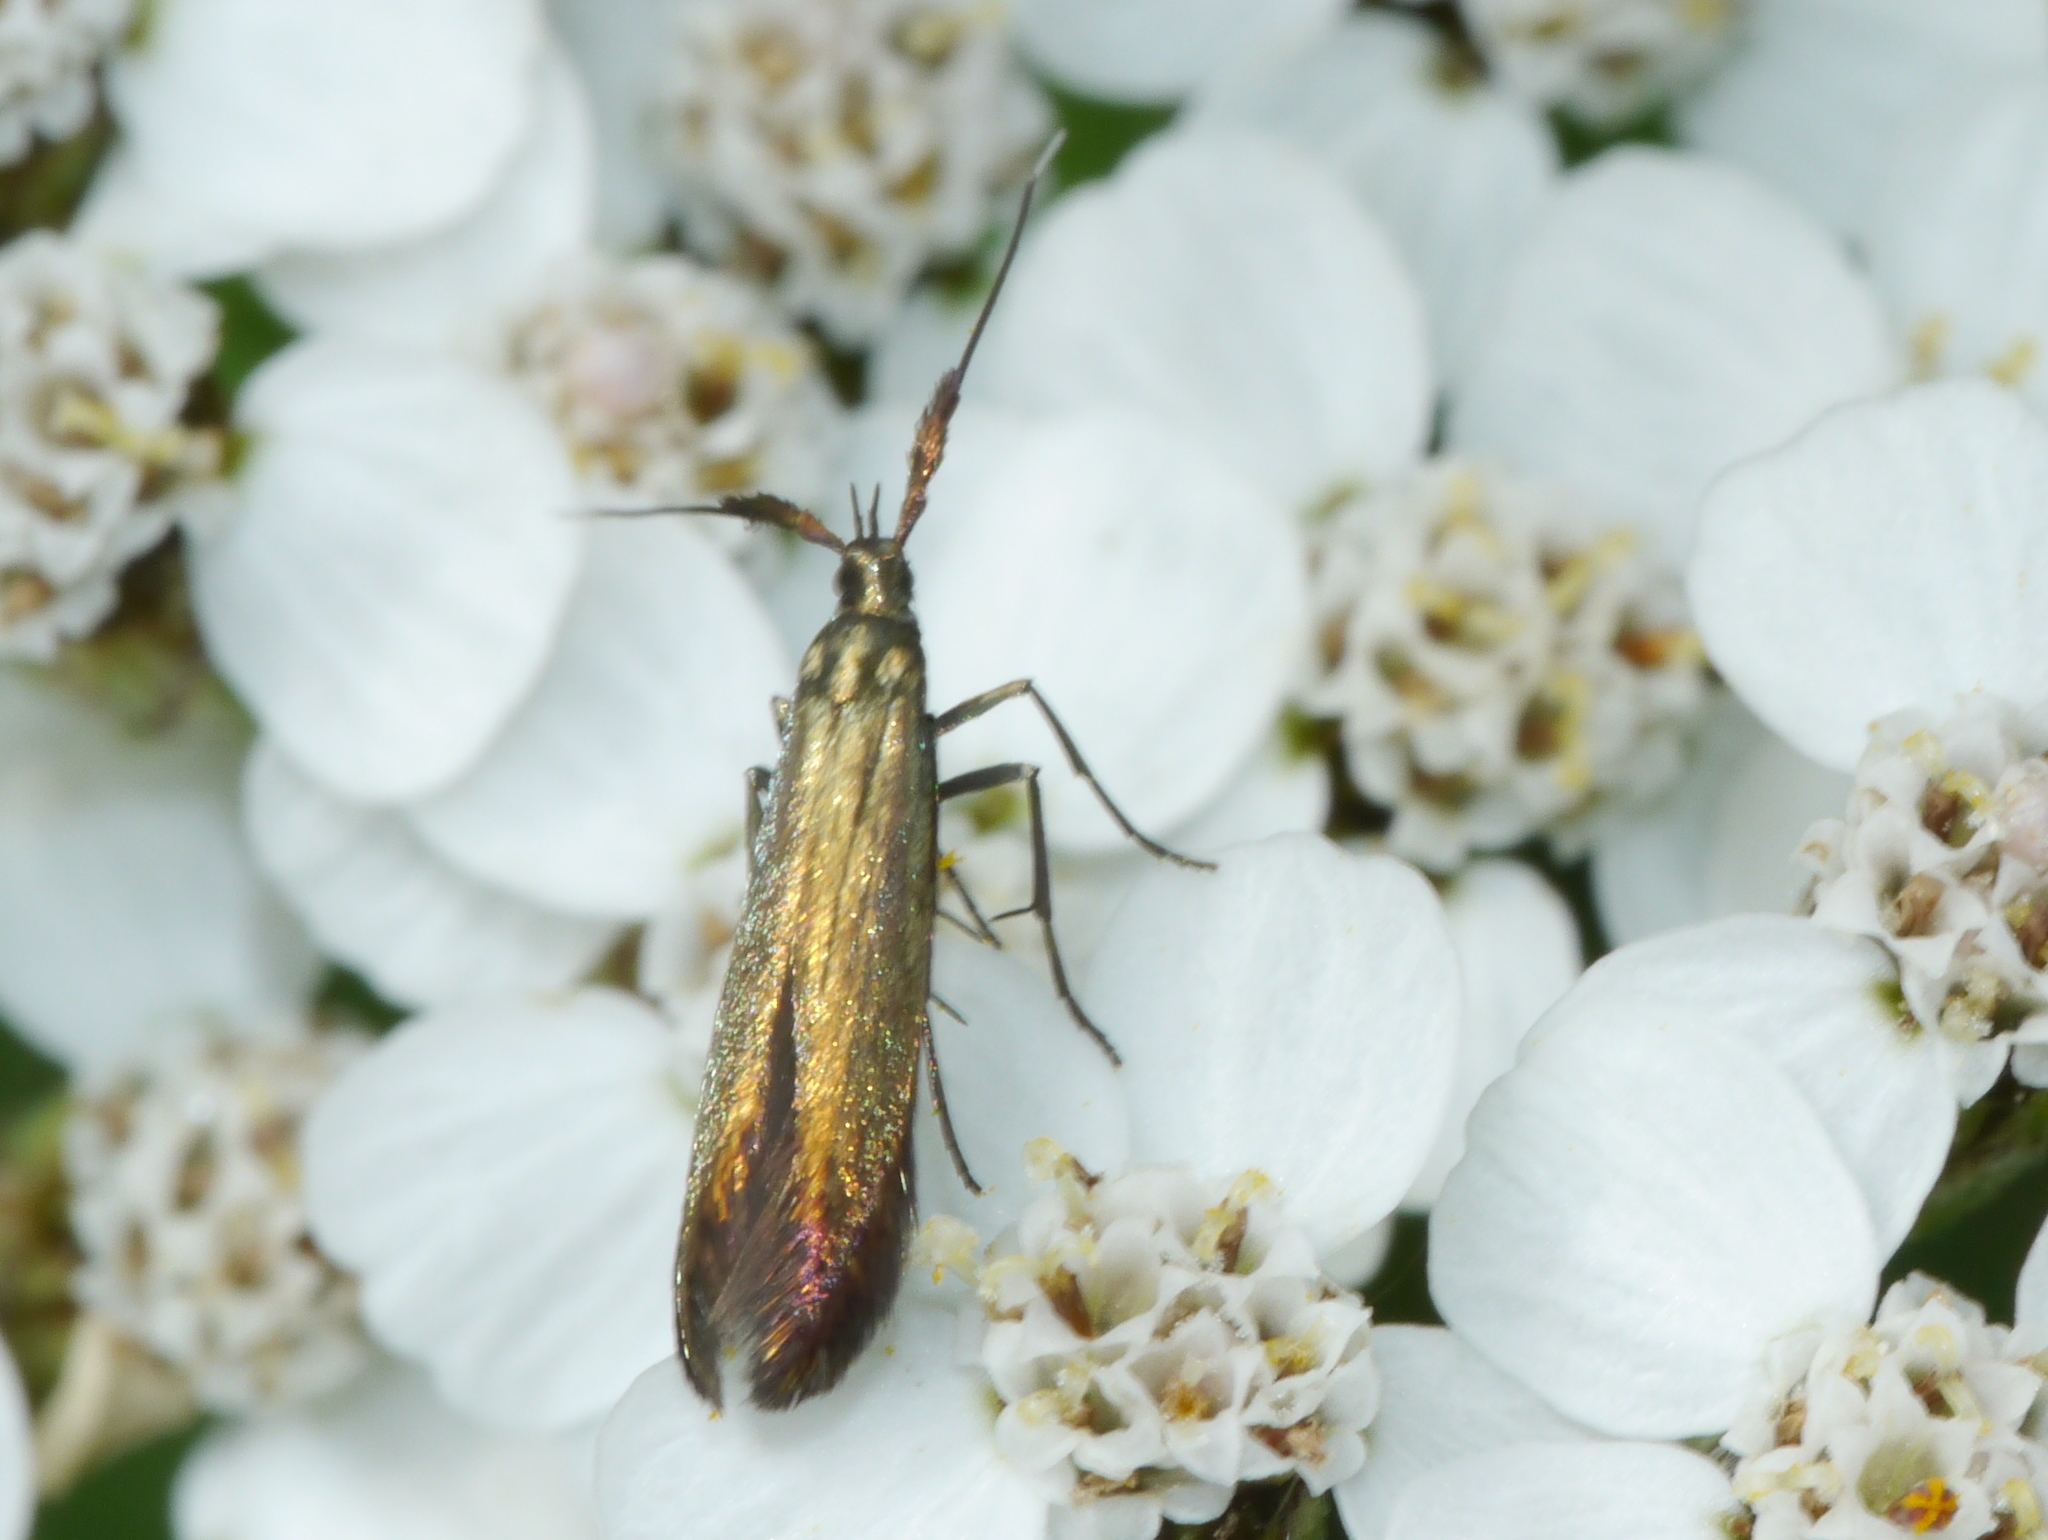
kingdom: Animalia
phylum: Arthropoda
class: Insecta
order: Lepidoptera
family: Coleophoridae
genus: Coleophora
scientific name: Coleophora deauratella
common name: Red-clover case-bearer
